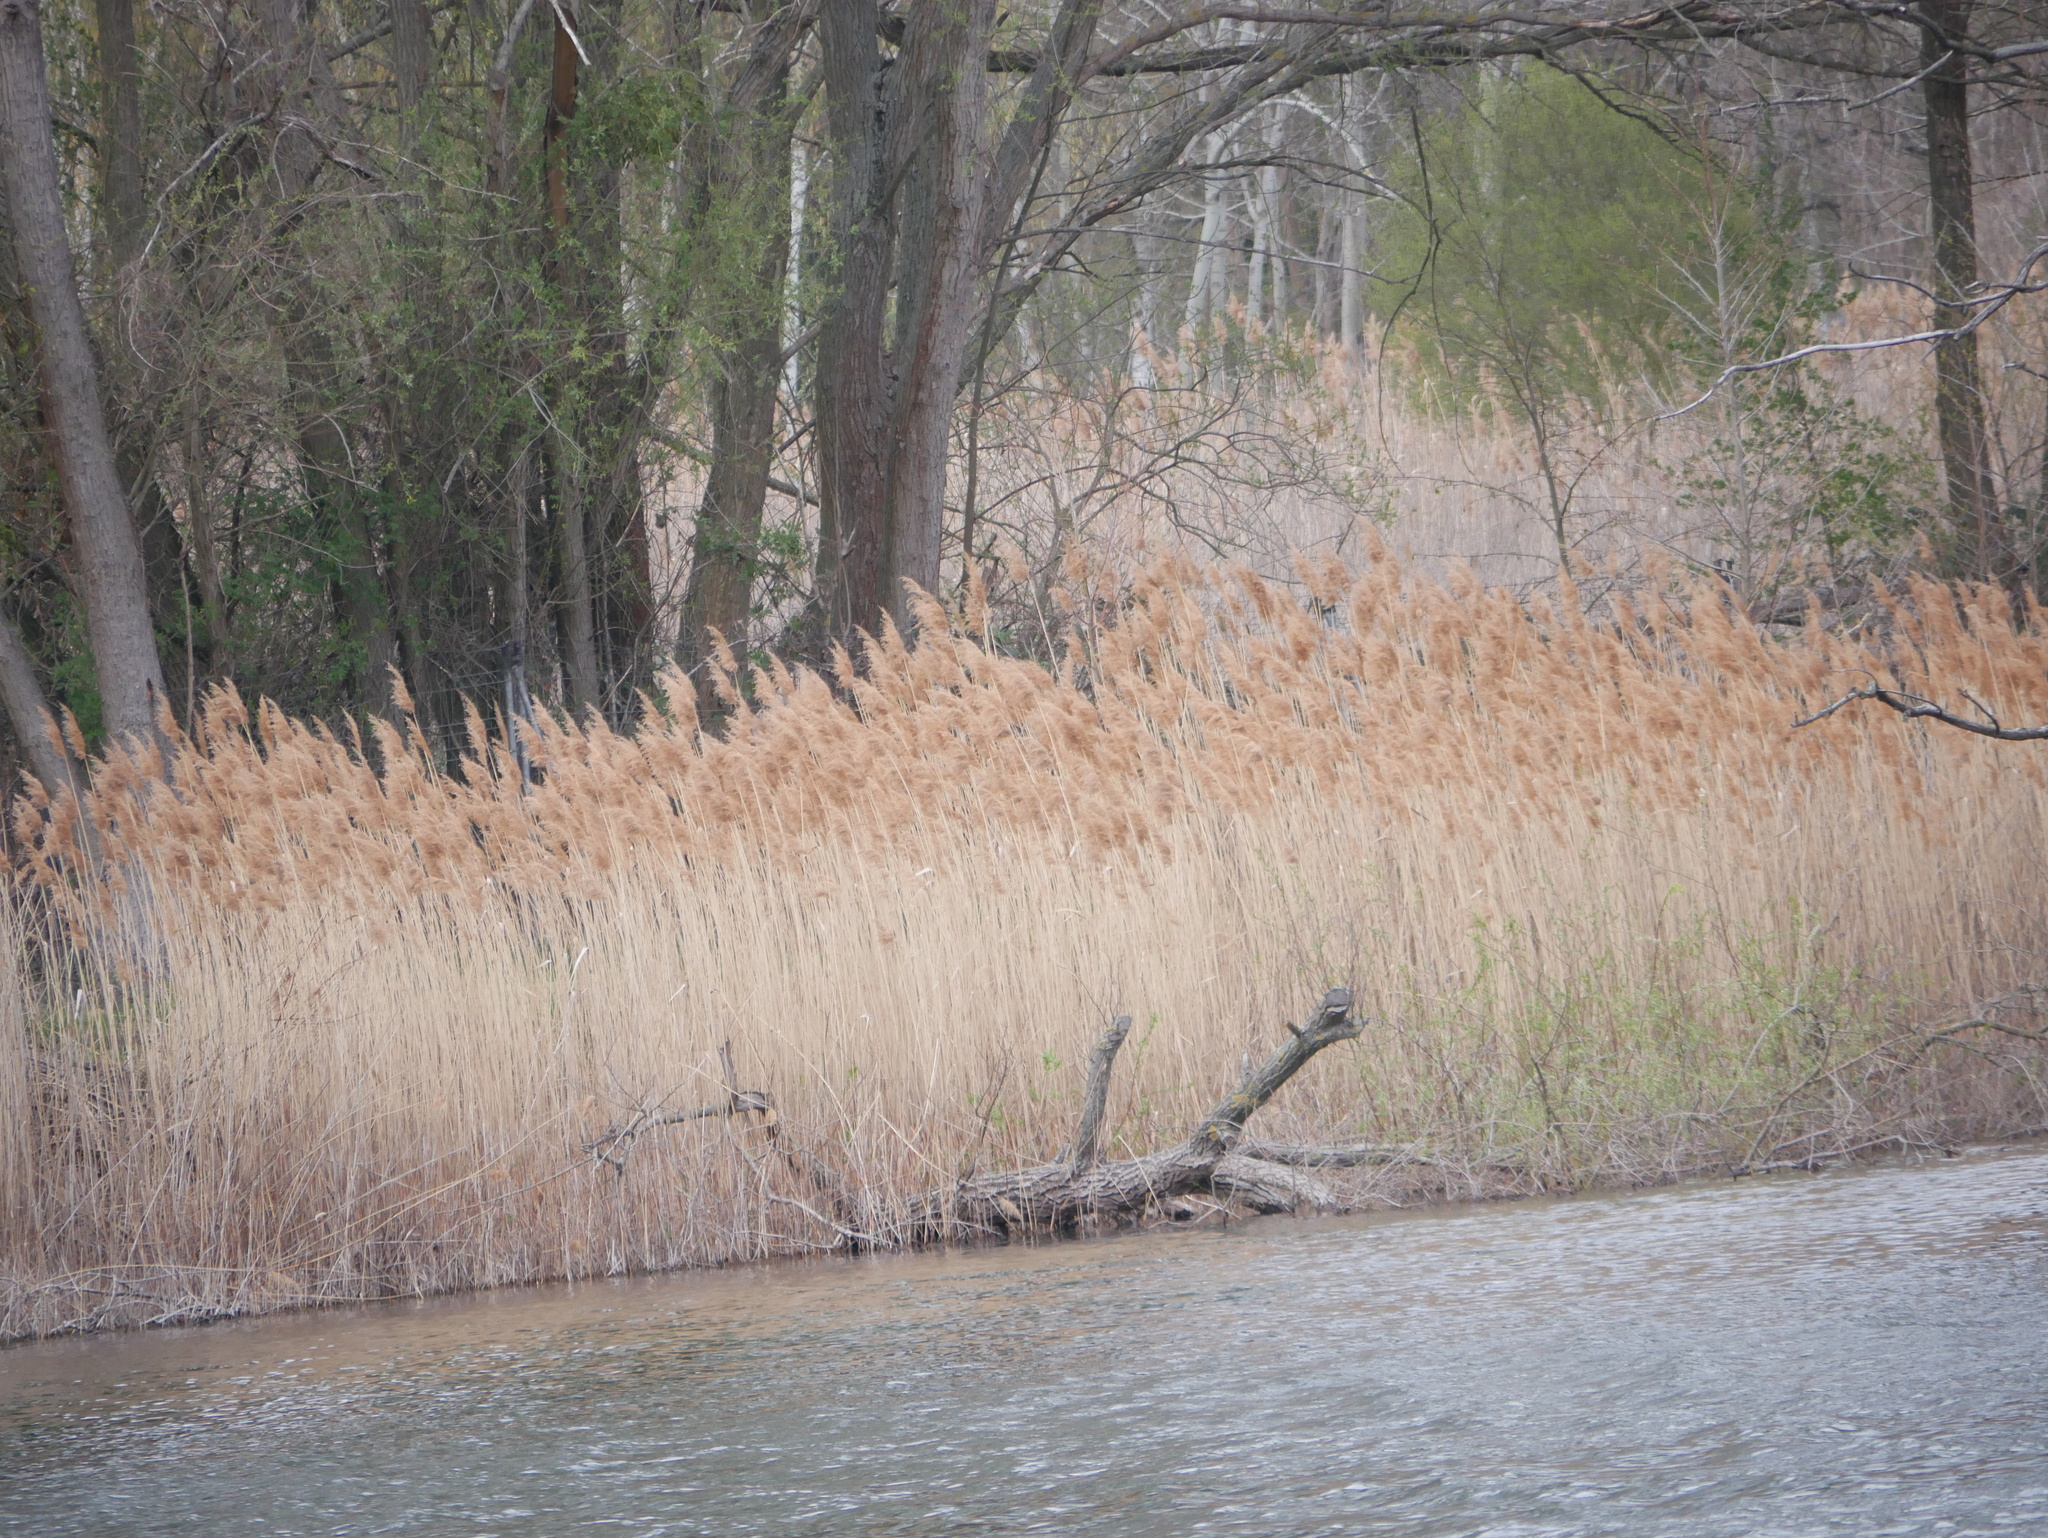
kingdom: Plantae
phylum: Tracheophyta
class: Liliopsida
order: Poales
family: Poaceae
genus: Phragmites
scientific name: Phragmites australis
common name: Common reed
